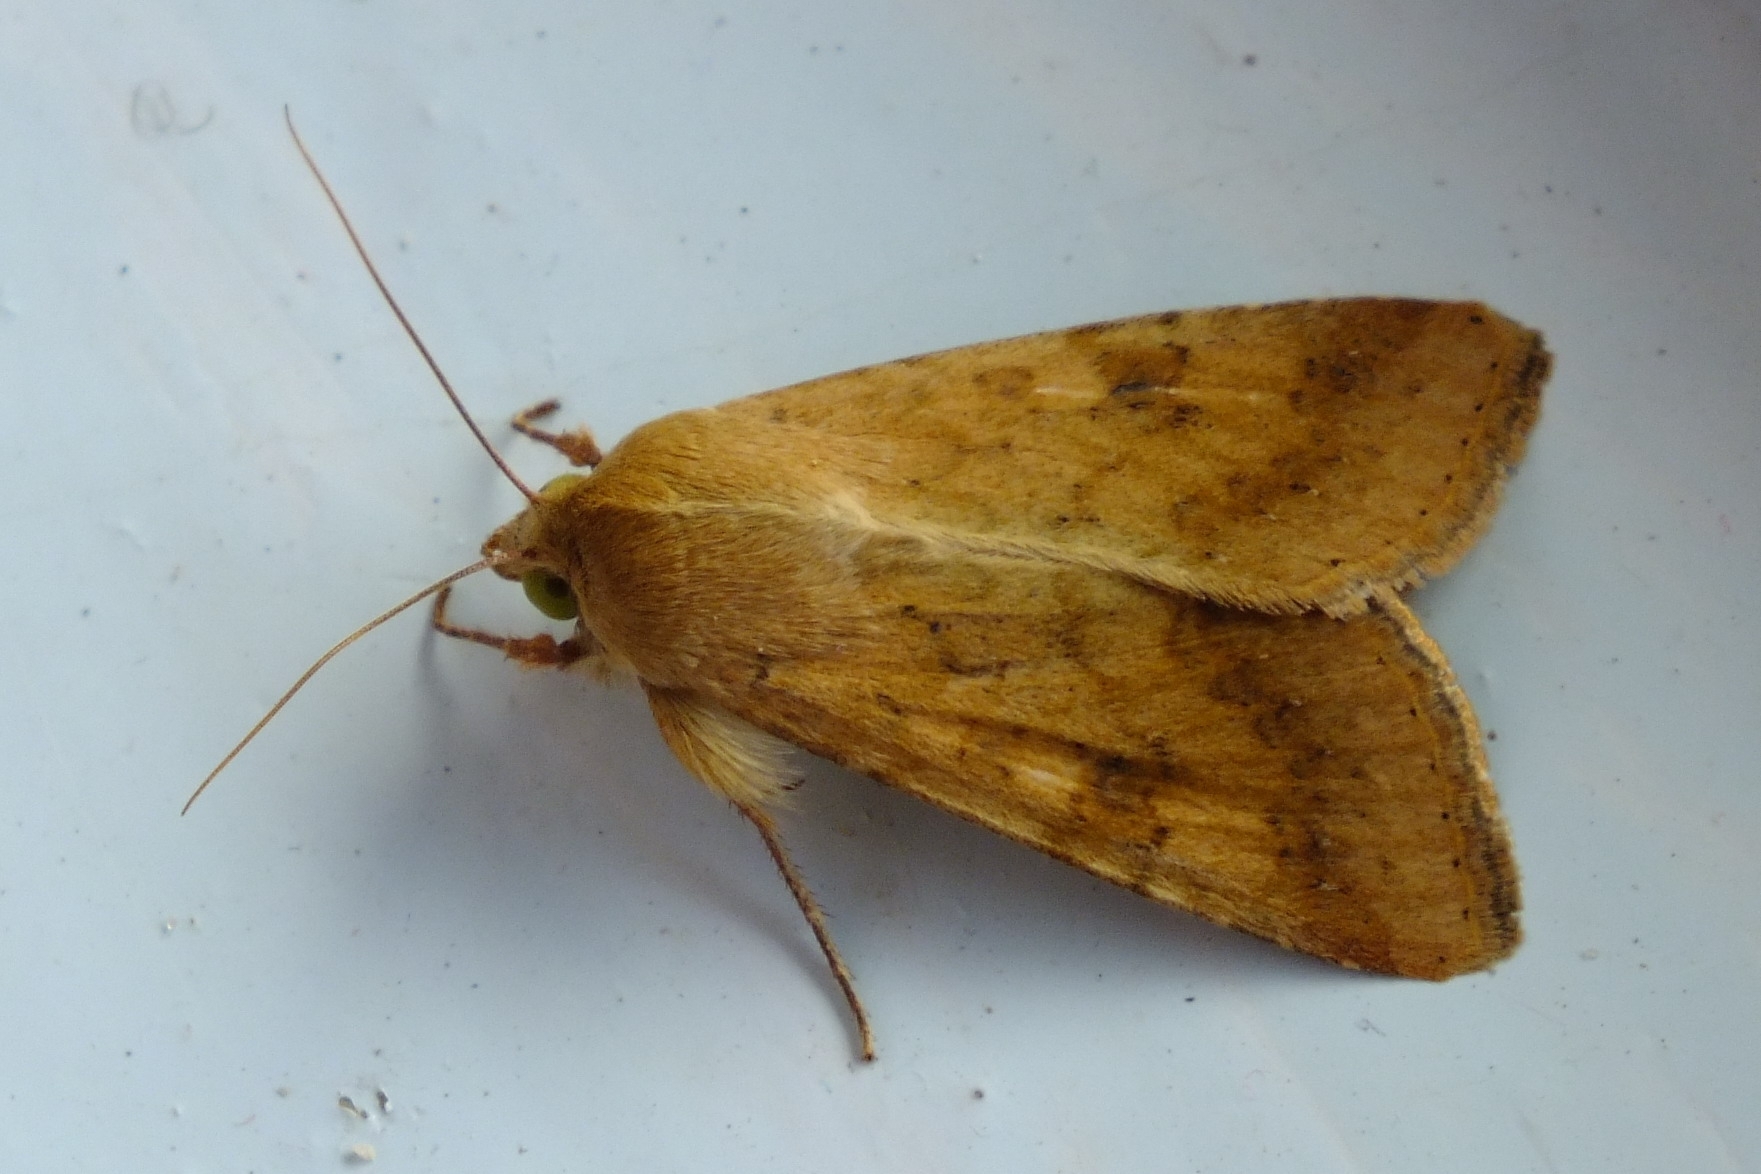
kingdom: Animalia
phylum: Arthropoda
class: Insecta
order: Lepidoptera
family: Noctuidae
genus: Helicoverpa
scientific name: Helicoverpa armigera
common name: Cotton bollworm
